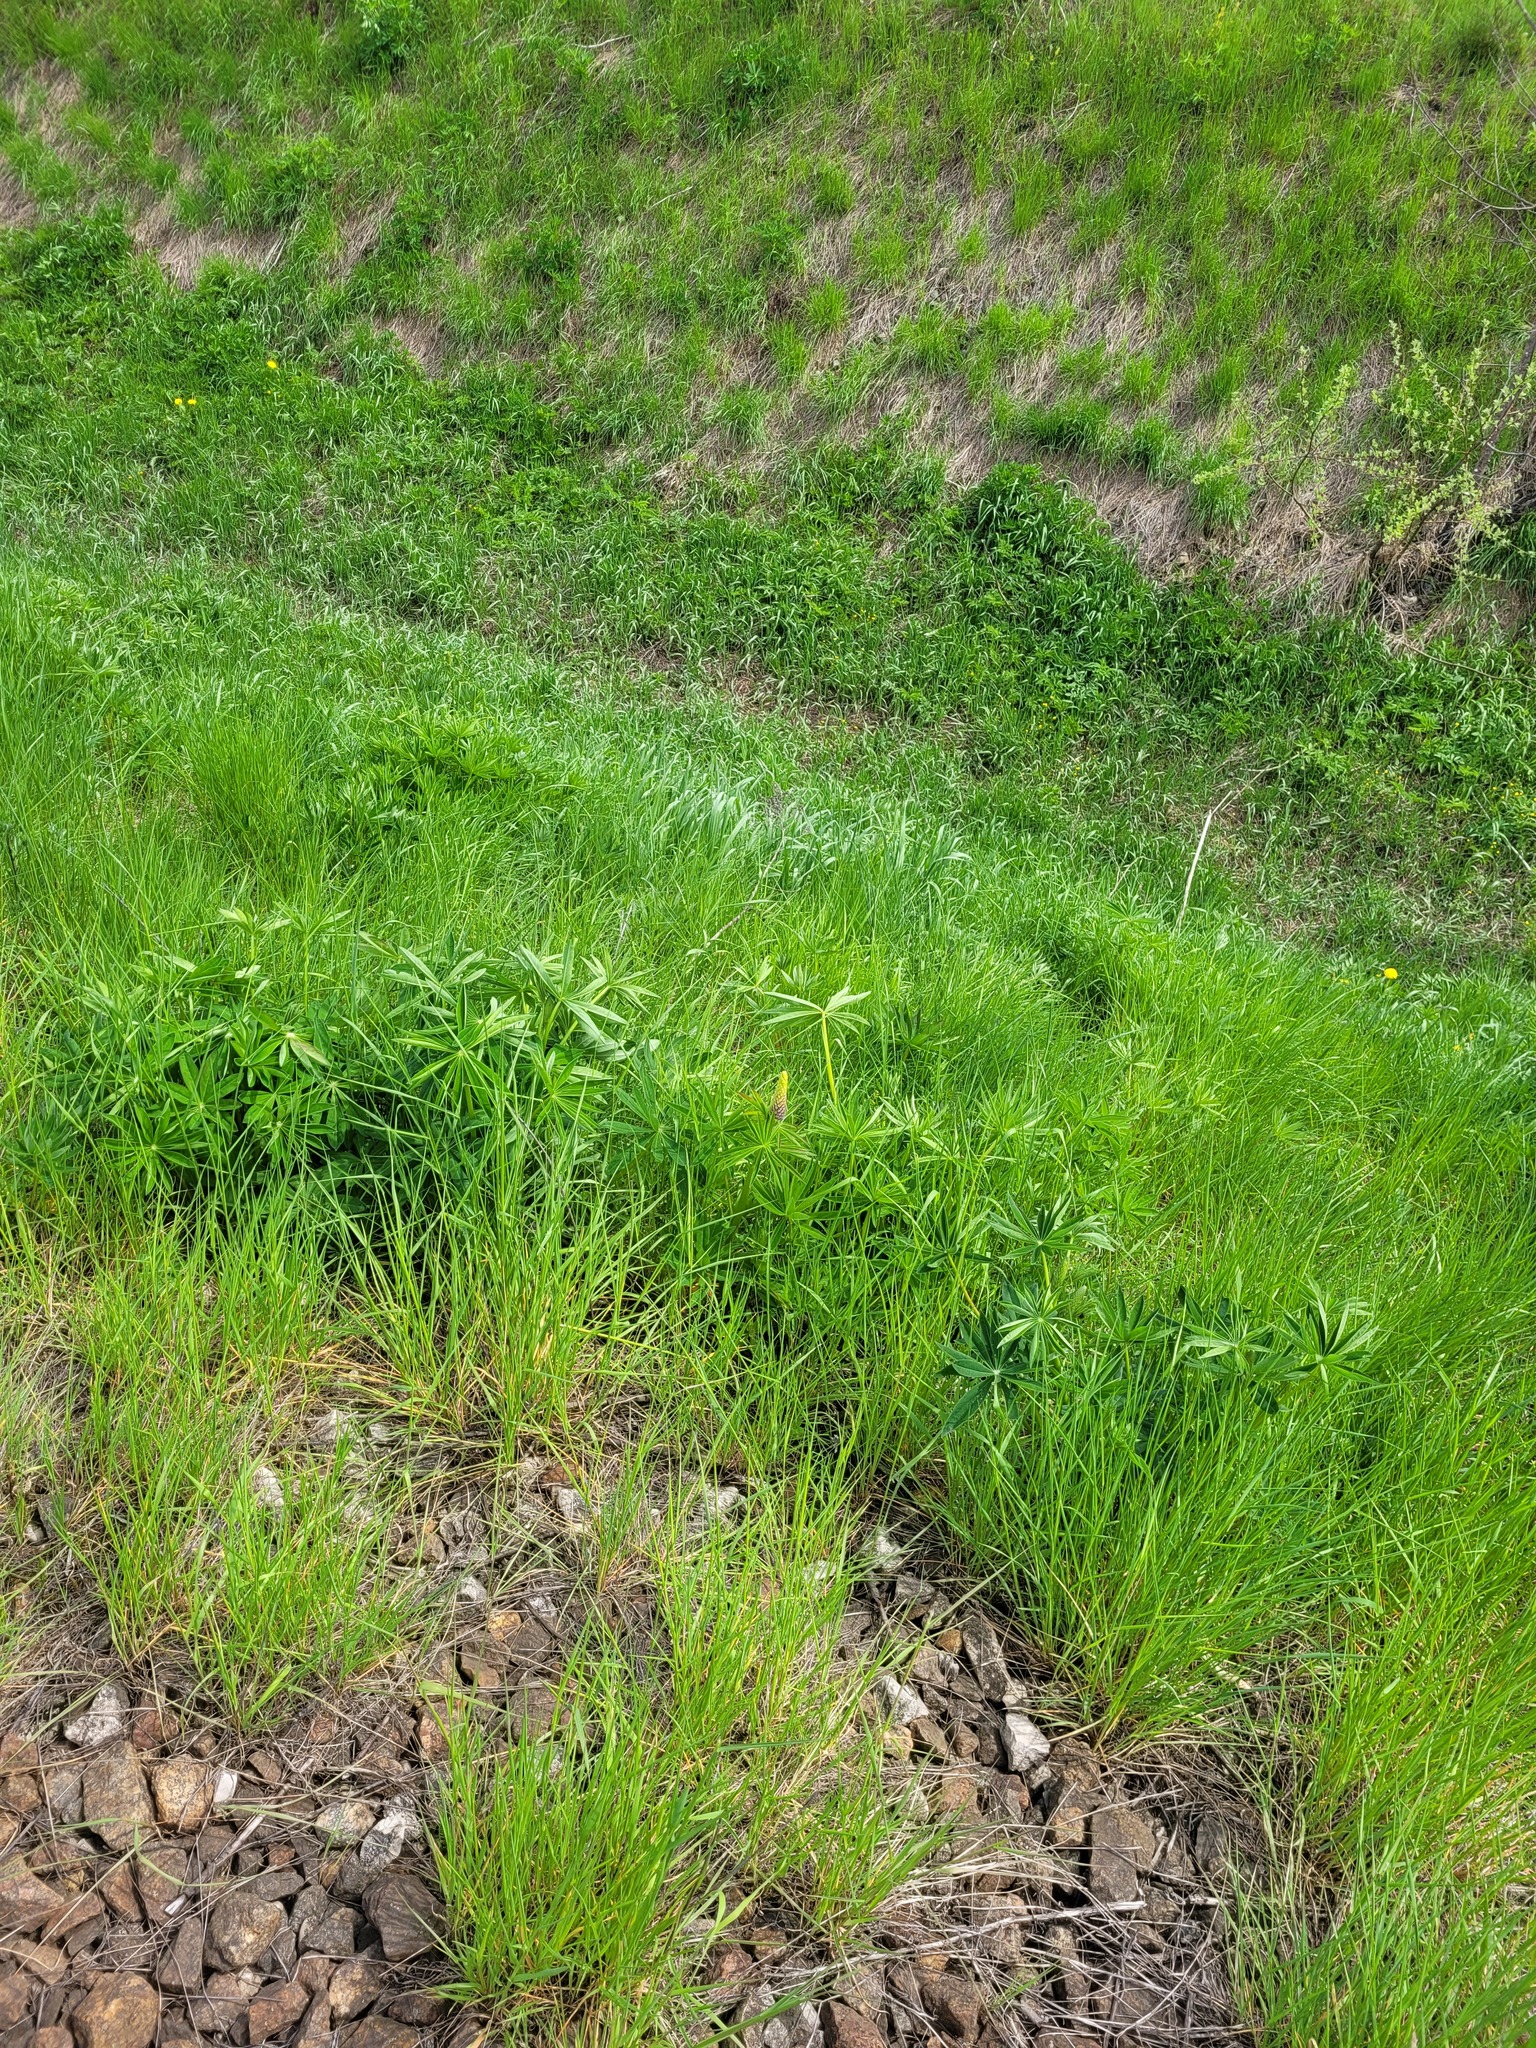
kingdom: Plantae
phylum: Tracheophyta
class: Magnoliopsida
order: Fabales
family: Fabaceae
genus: Lupinus
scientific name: Lupinus polyphyllus
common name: Garden lupin
